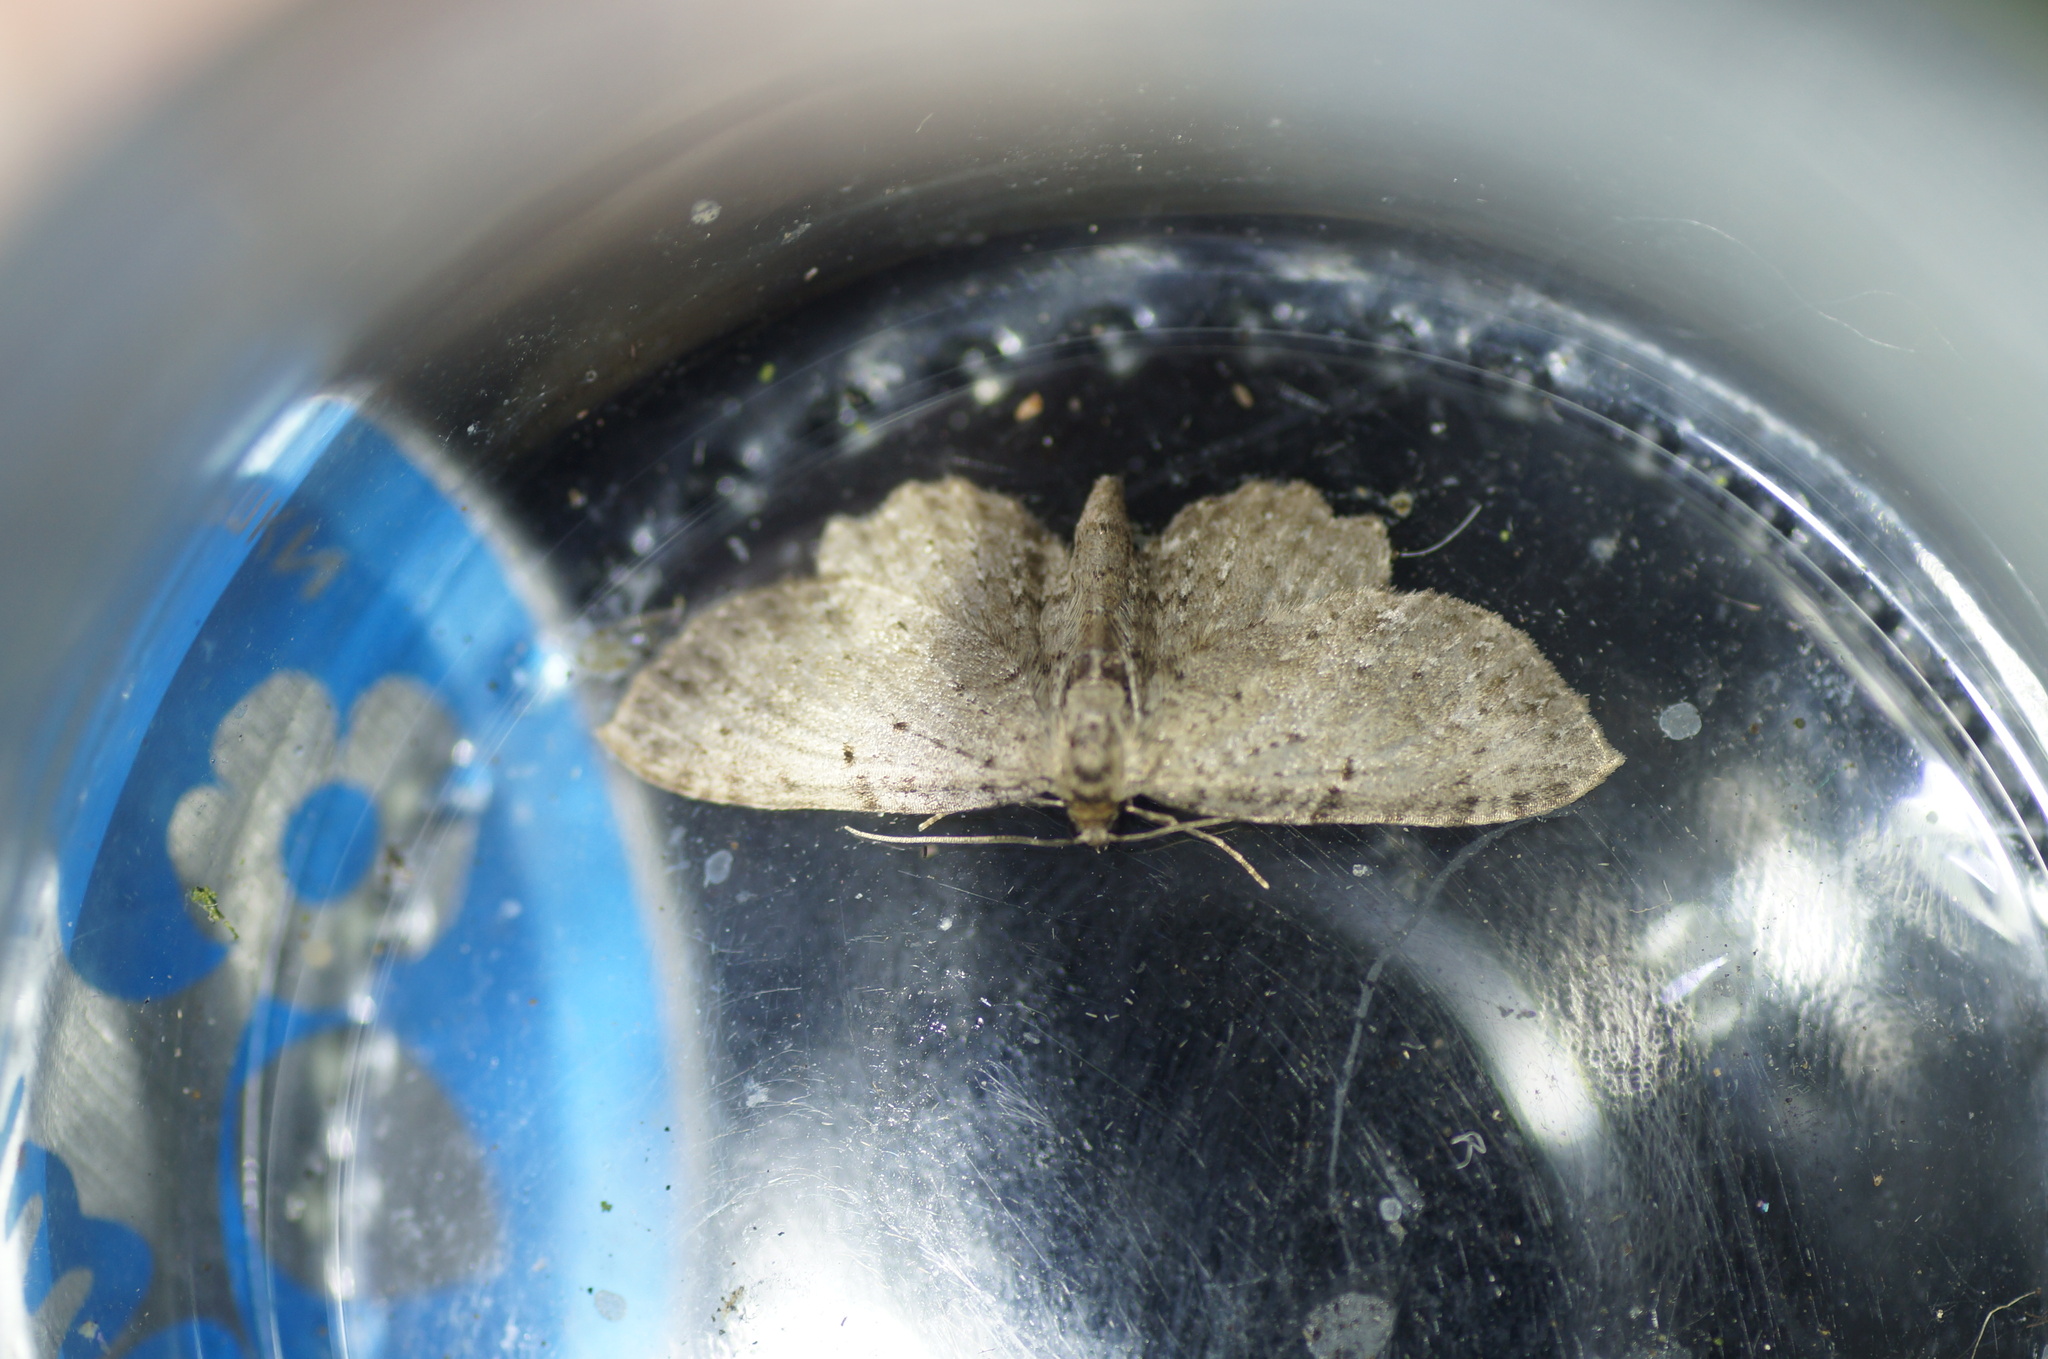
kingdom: Animalia
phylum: Arthropoda
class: Insecta
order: Lepidoptera
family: Geometridae
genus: Anticollix
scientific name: Anticollix sparsata
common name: Dentated pug
